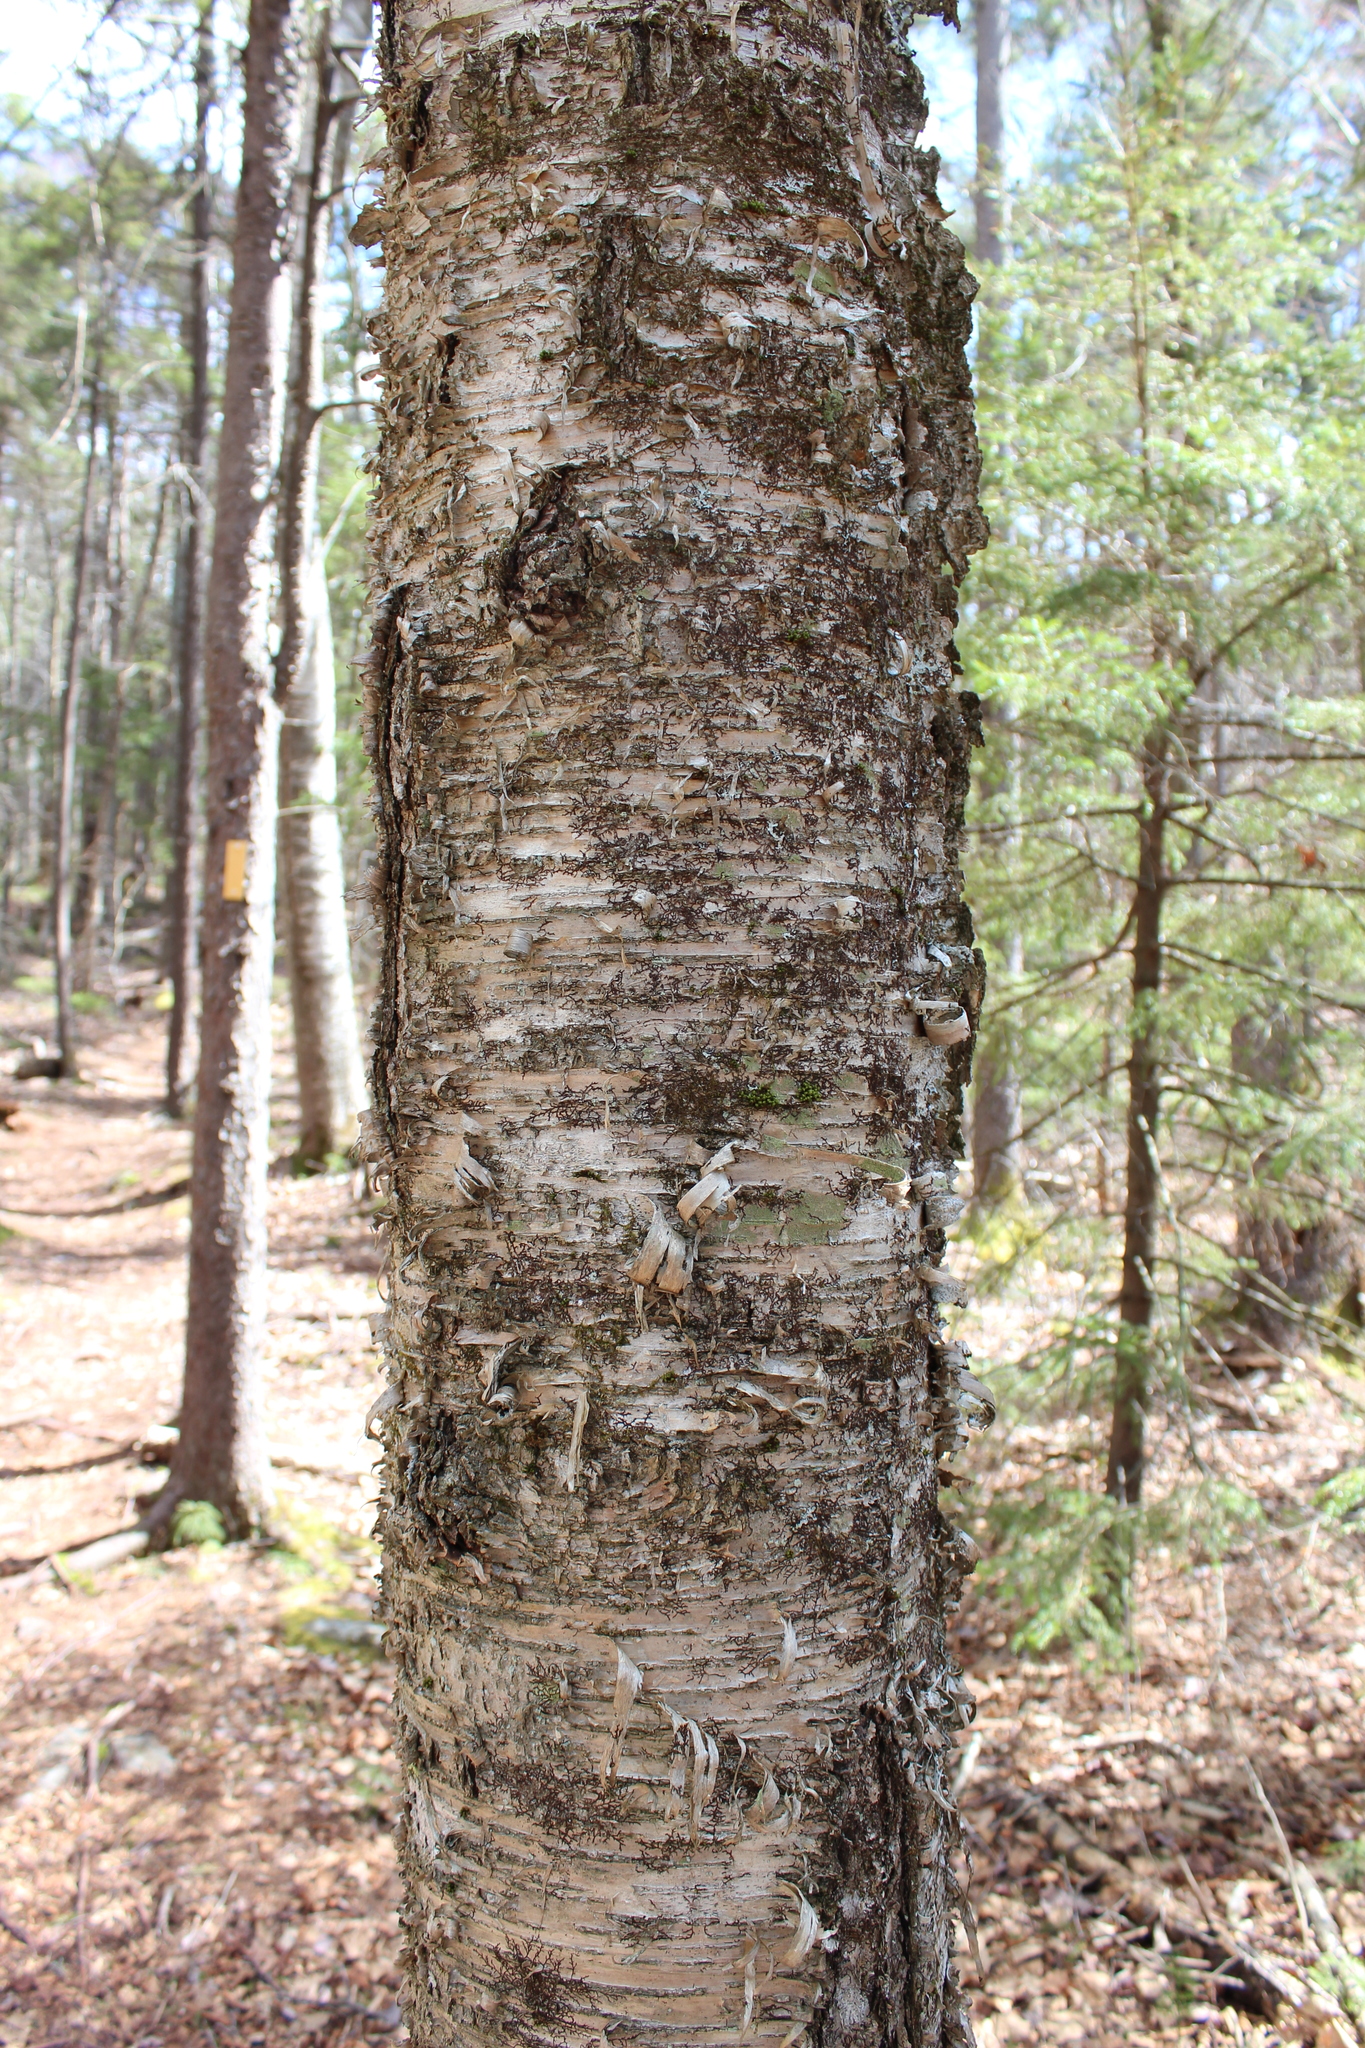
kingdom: Plantae
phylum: Tracheophyta
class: Magnoliopsida
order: Fagales
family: Betulaceae
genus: Betula
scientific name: Betula alleghaniensis
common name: Yellow birch
